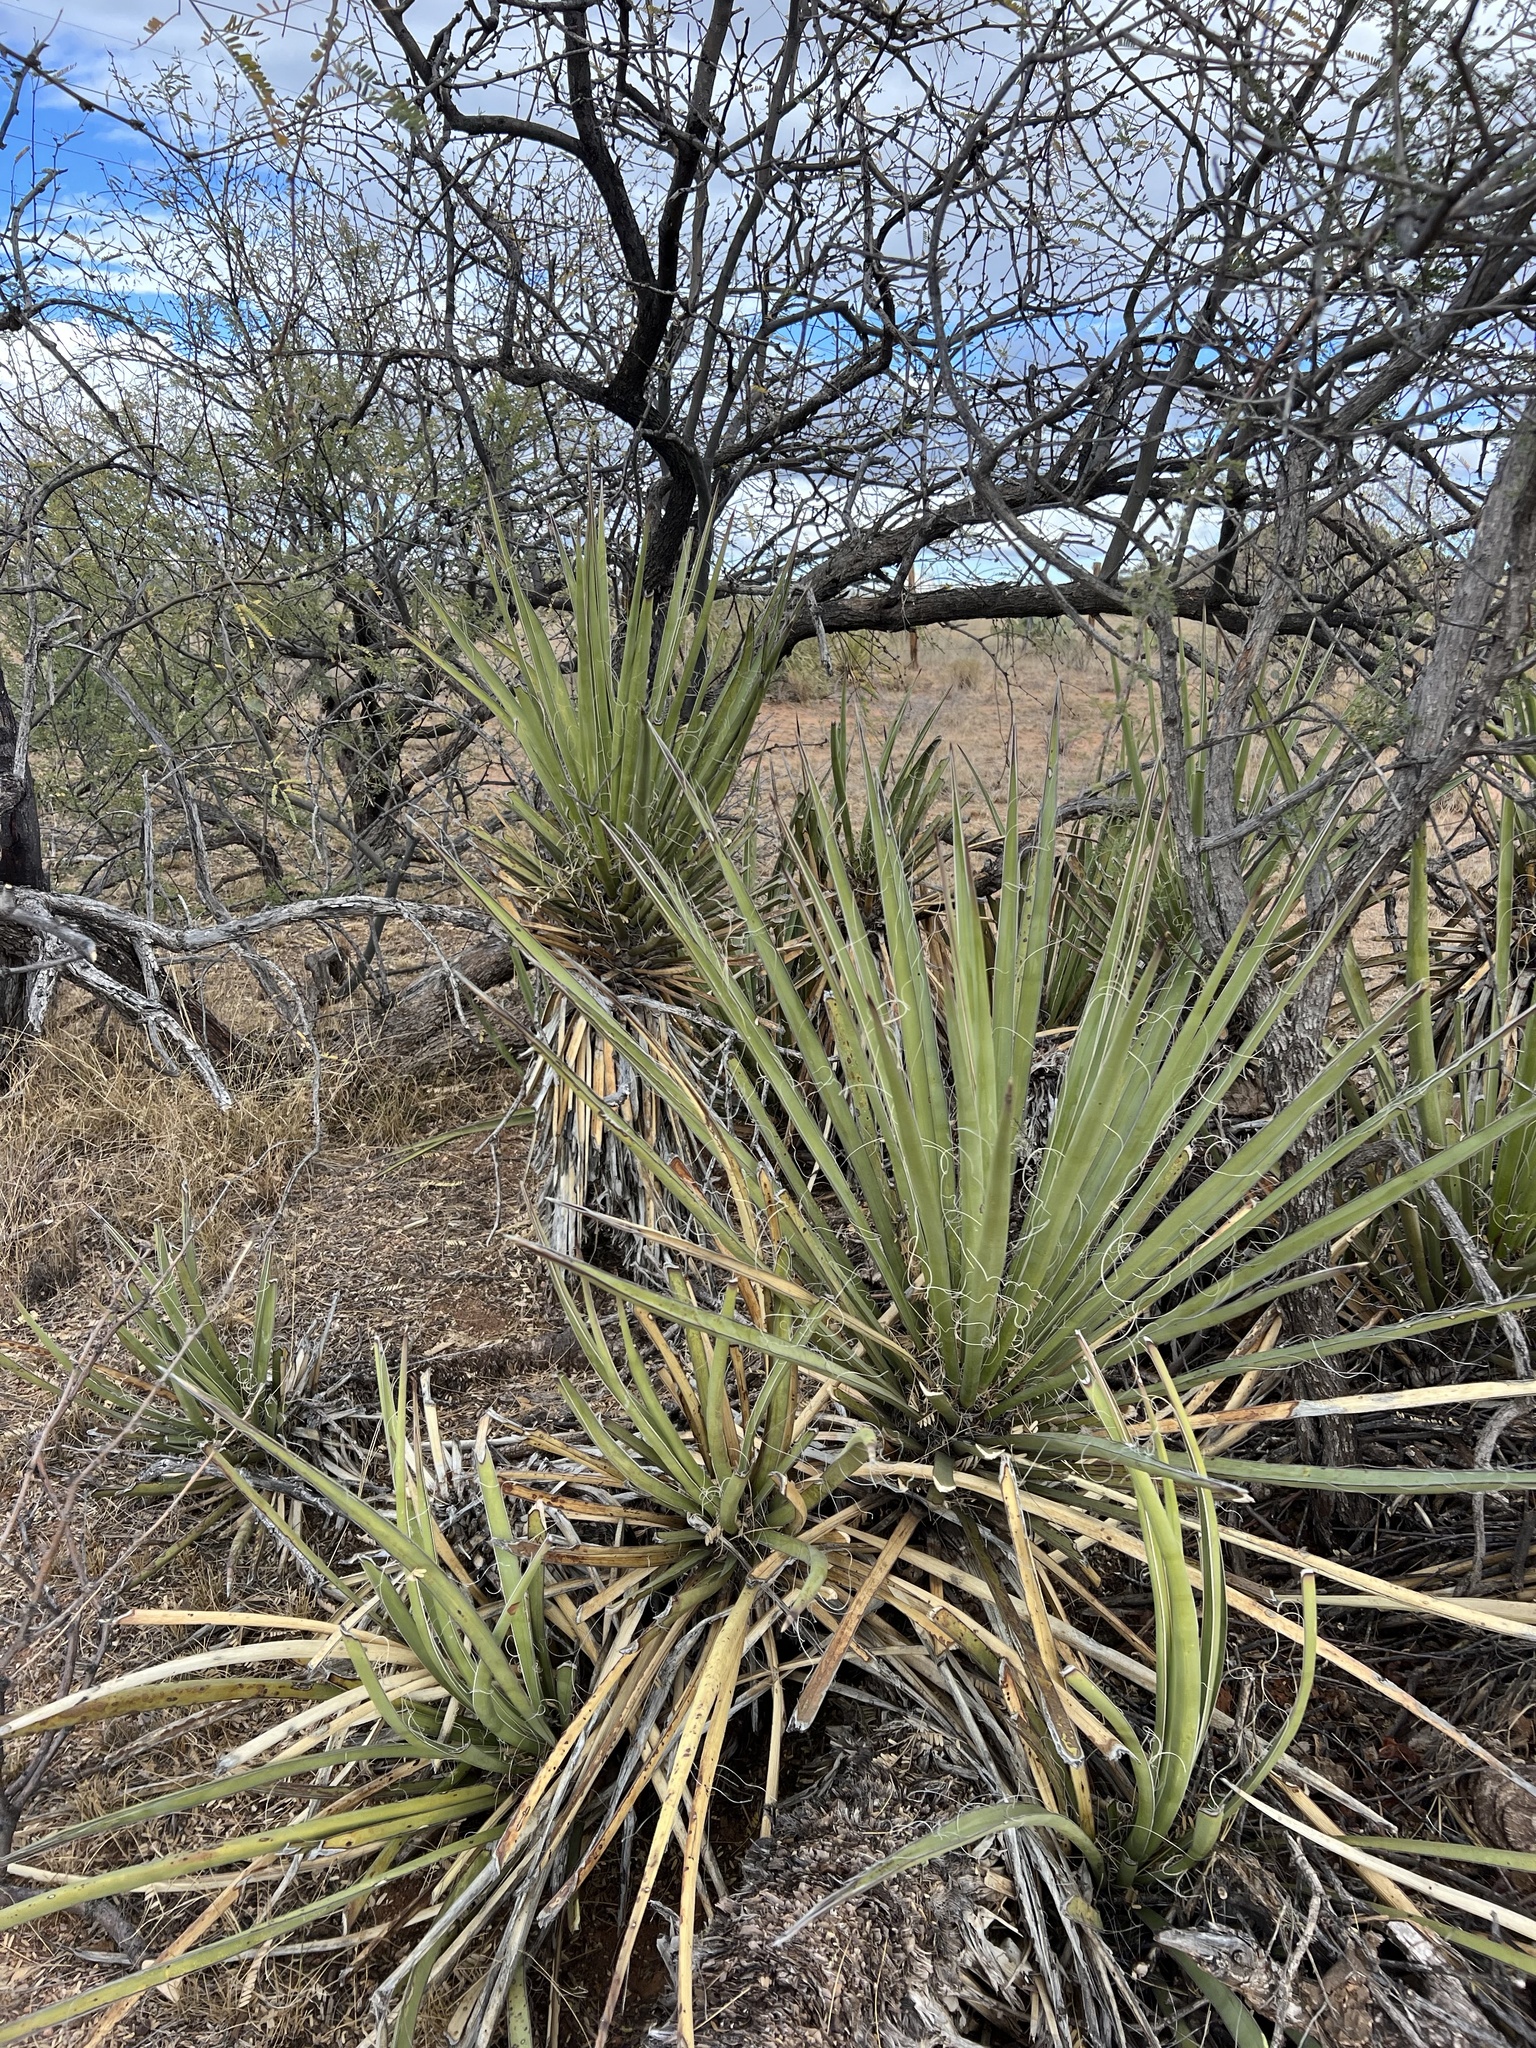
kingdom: Plantae
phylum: Tracheophyta
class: Liliopsida
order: Asparagales
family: Asparagaceae
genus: Yucca
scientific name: Yucca baccata
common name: Banana yucca
